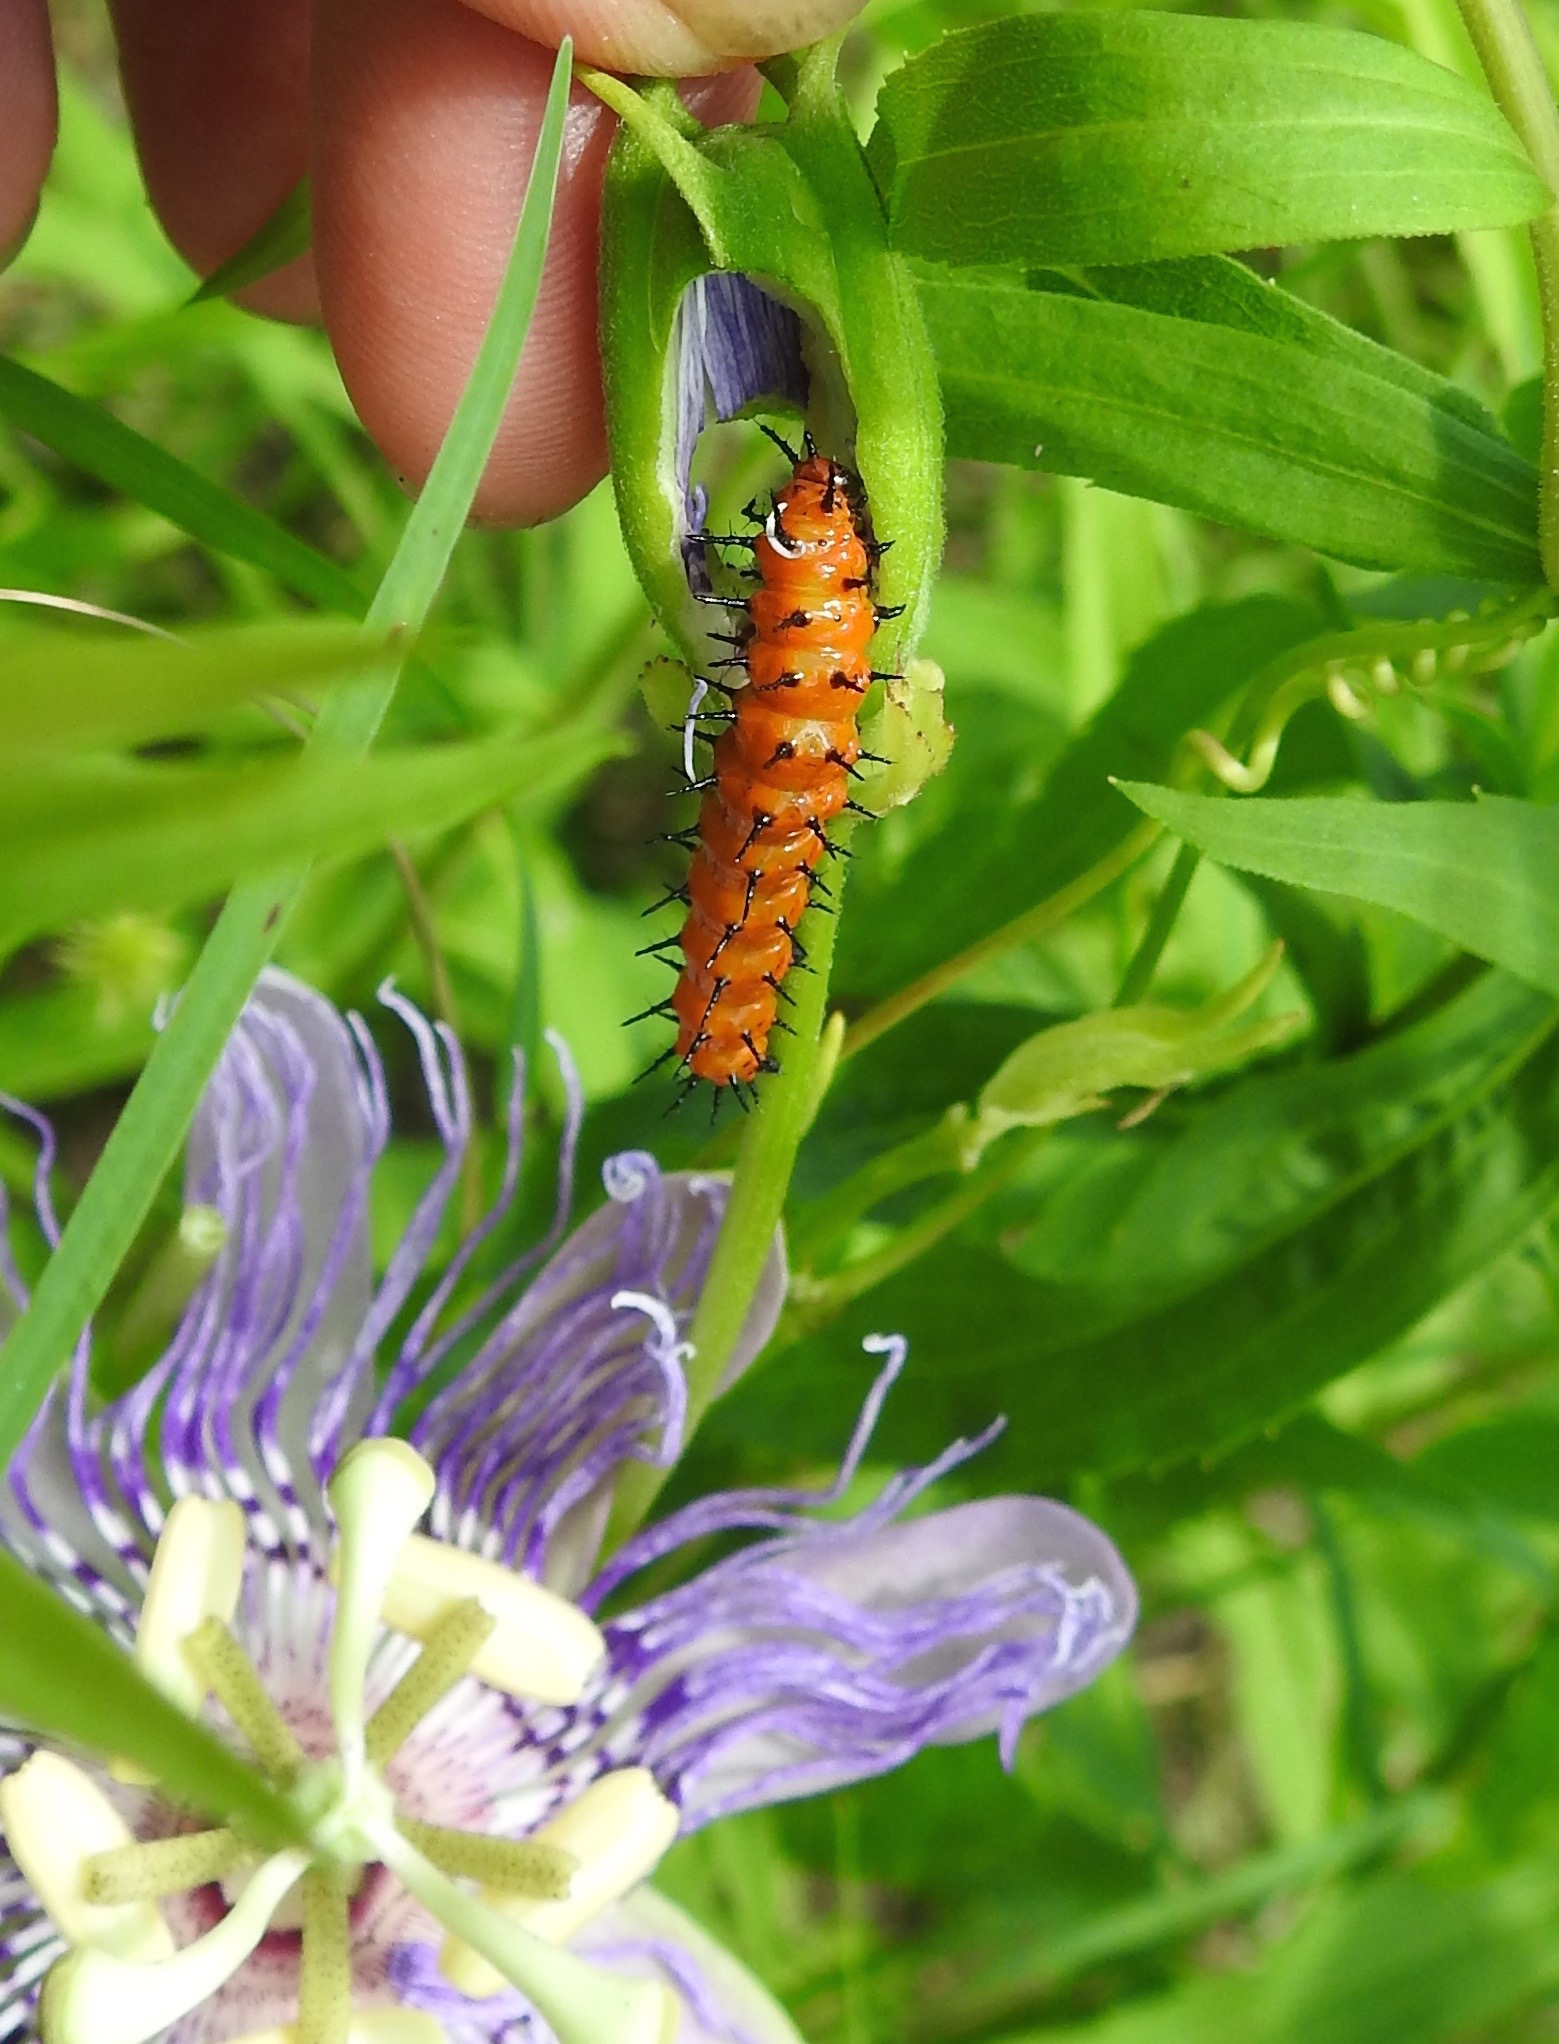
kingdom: Animalia
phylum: Arthropoda
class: Insecta
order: Lepidoptera
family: Nymphalidae
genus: Dione
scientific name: Dione vanillae
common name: Gulf fritillary
